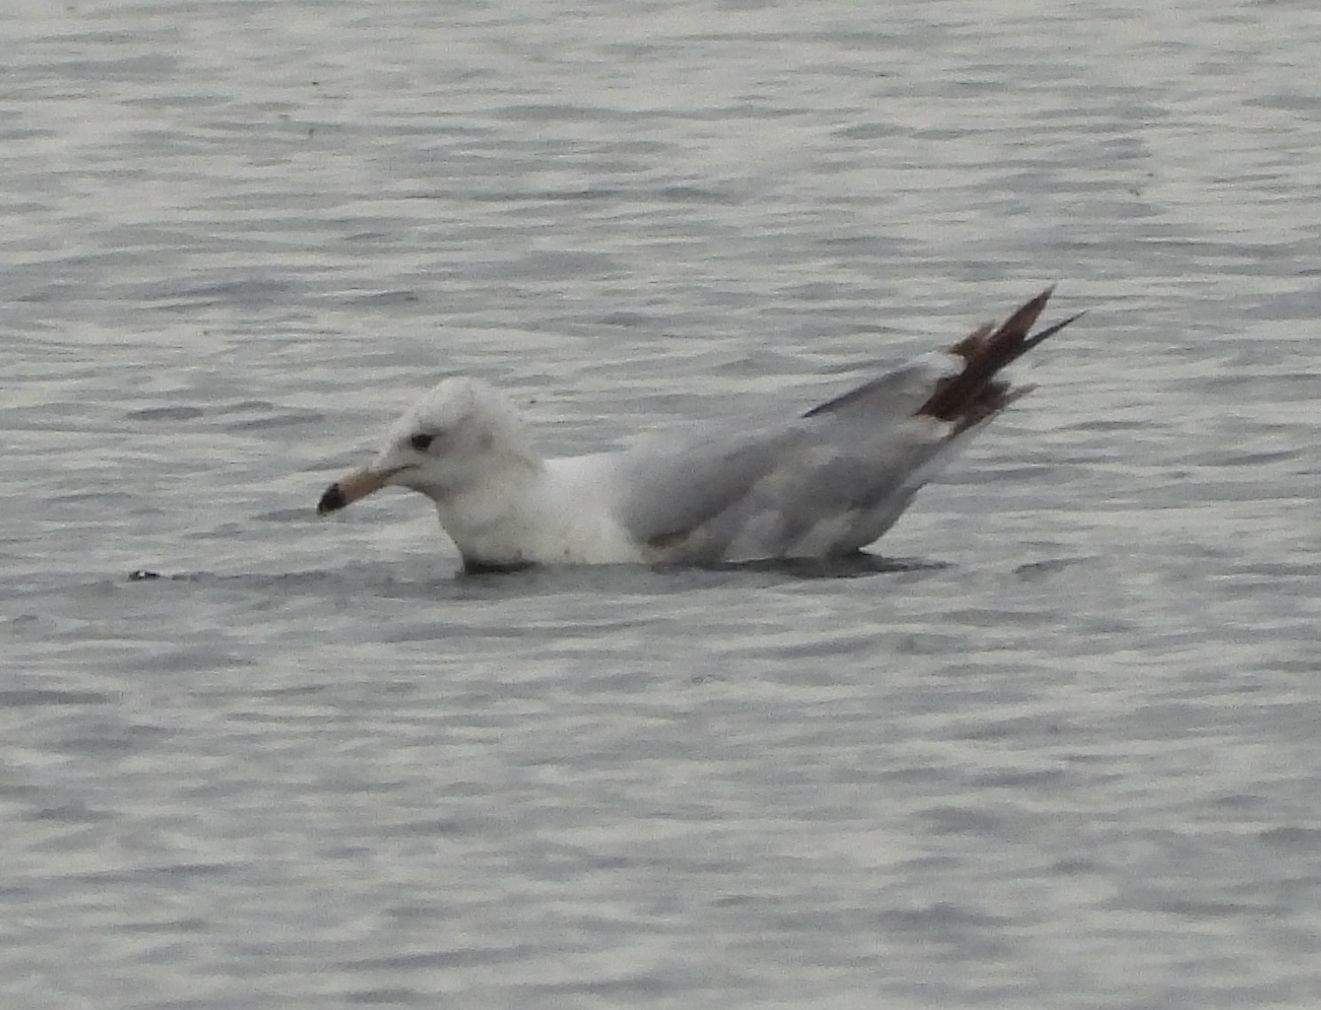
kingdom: Animalia
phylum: Chordata
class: Aves
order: Charadriiformes
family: Laridae
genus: Larus
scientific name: Larus delawarensis
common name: Ring-billed gull
